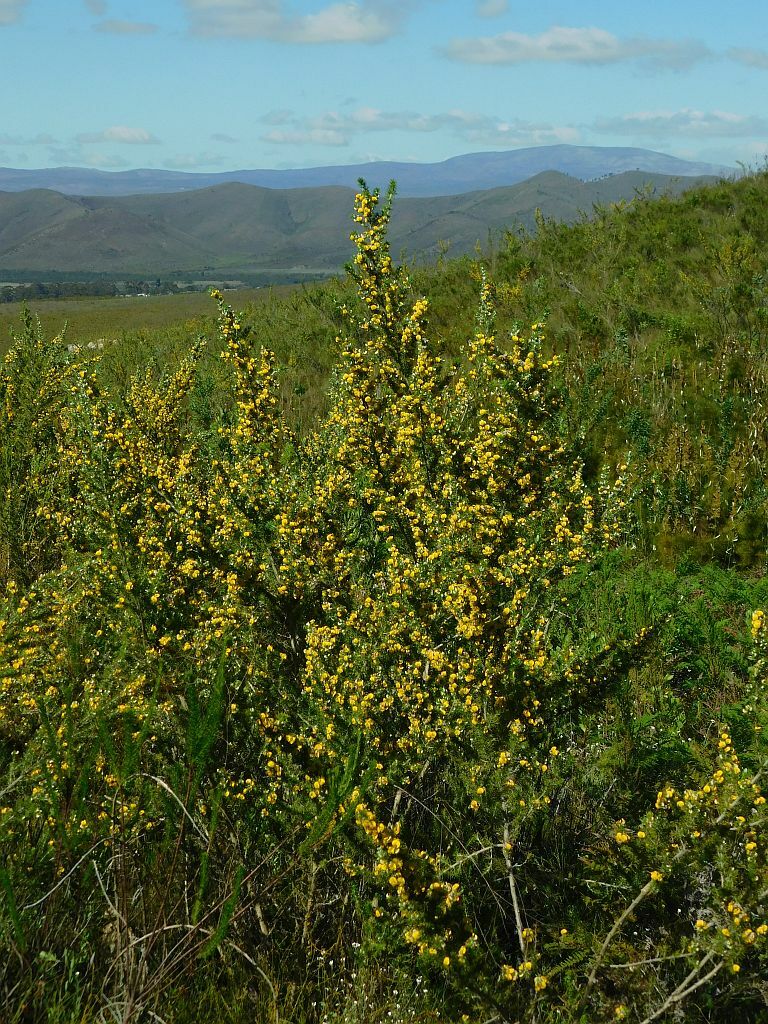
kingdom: Plantae
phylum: Tracheophyta
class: Magnoliopsida
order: Fabales
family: Fabaceae
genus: Aspalathus
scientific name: Aspalathus hirta
